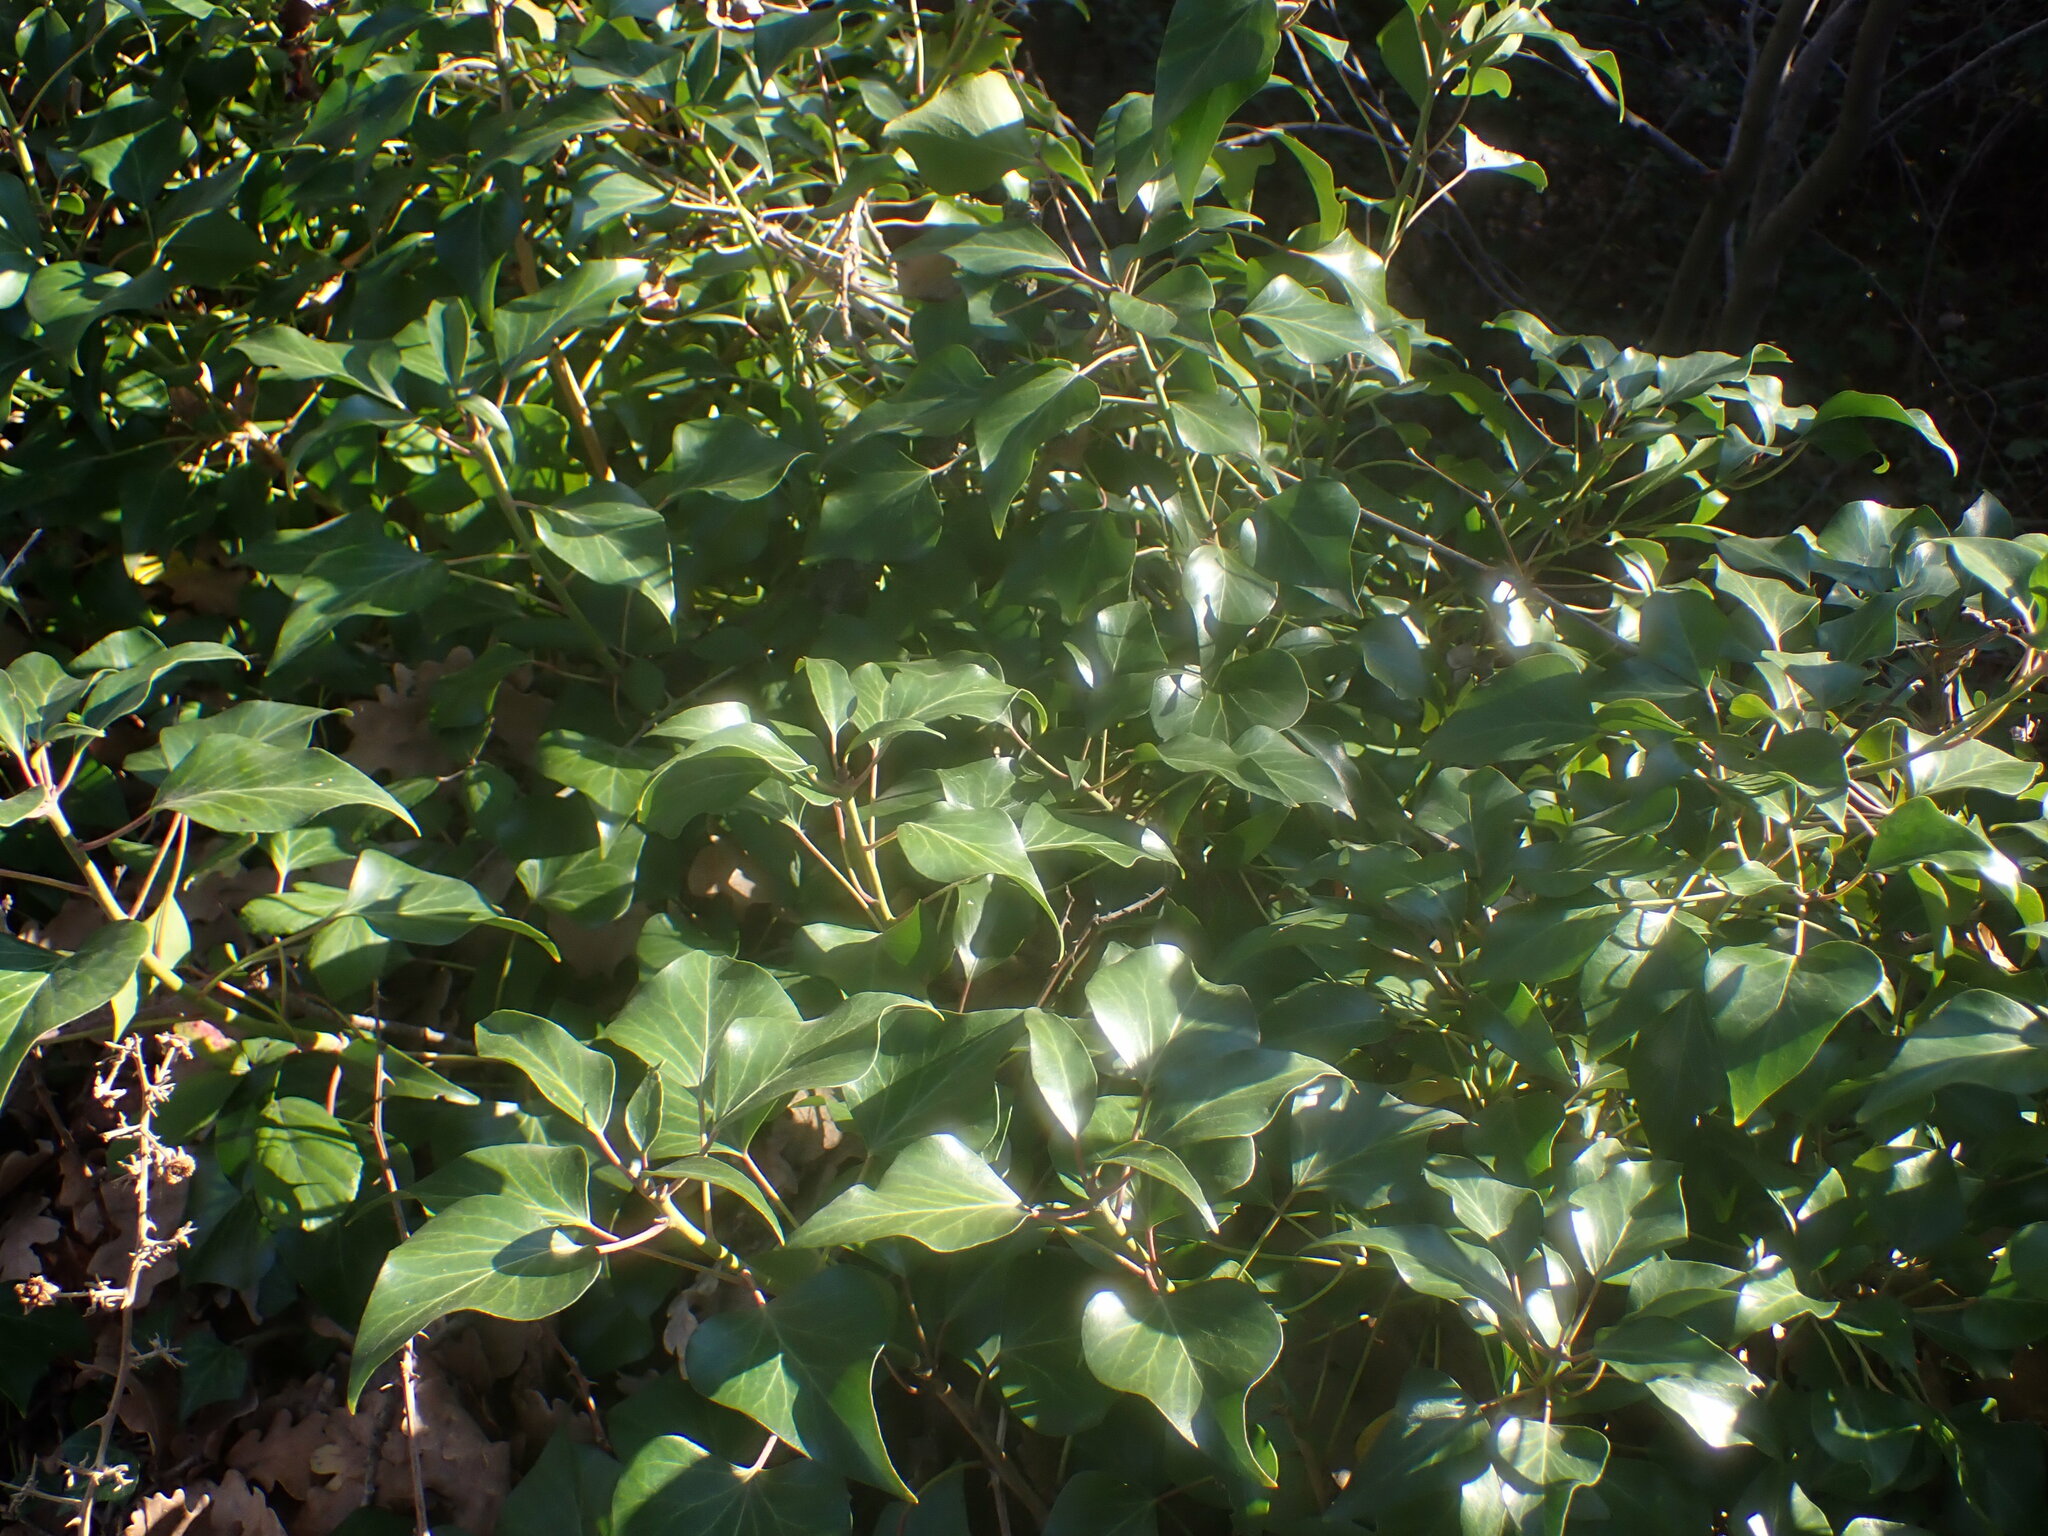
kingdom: Plantae
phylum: Tracheophyta
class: Magnoliopsida
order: Apiales
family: Araliaceae
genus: Hedera
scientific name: Hedera helix
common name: Ivy
